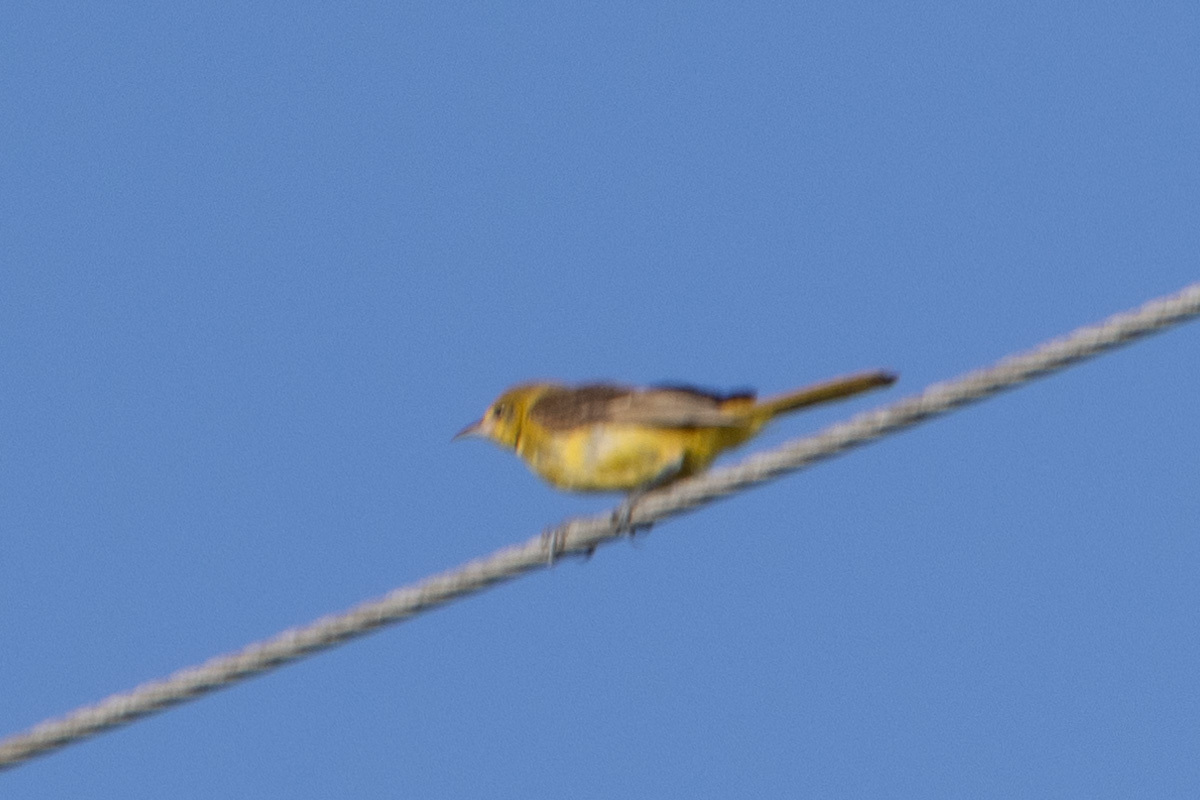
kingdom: Animalia
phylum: Chordata
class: Aves
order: Passeriformes
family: Icteridae
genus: Icterus
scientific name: Icterus spurius
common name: Orchard oriole
